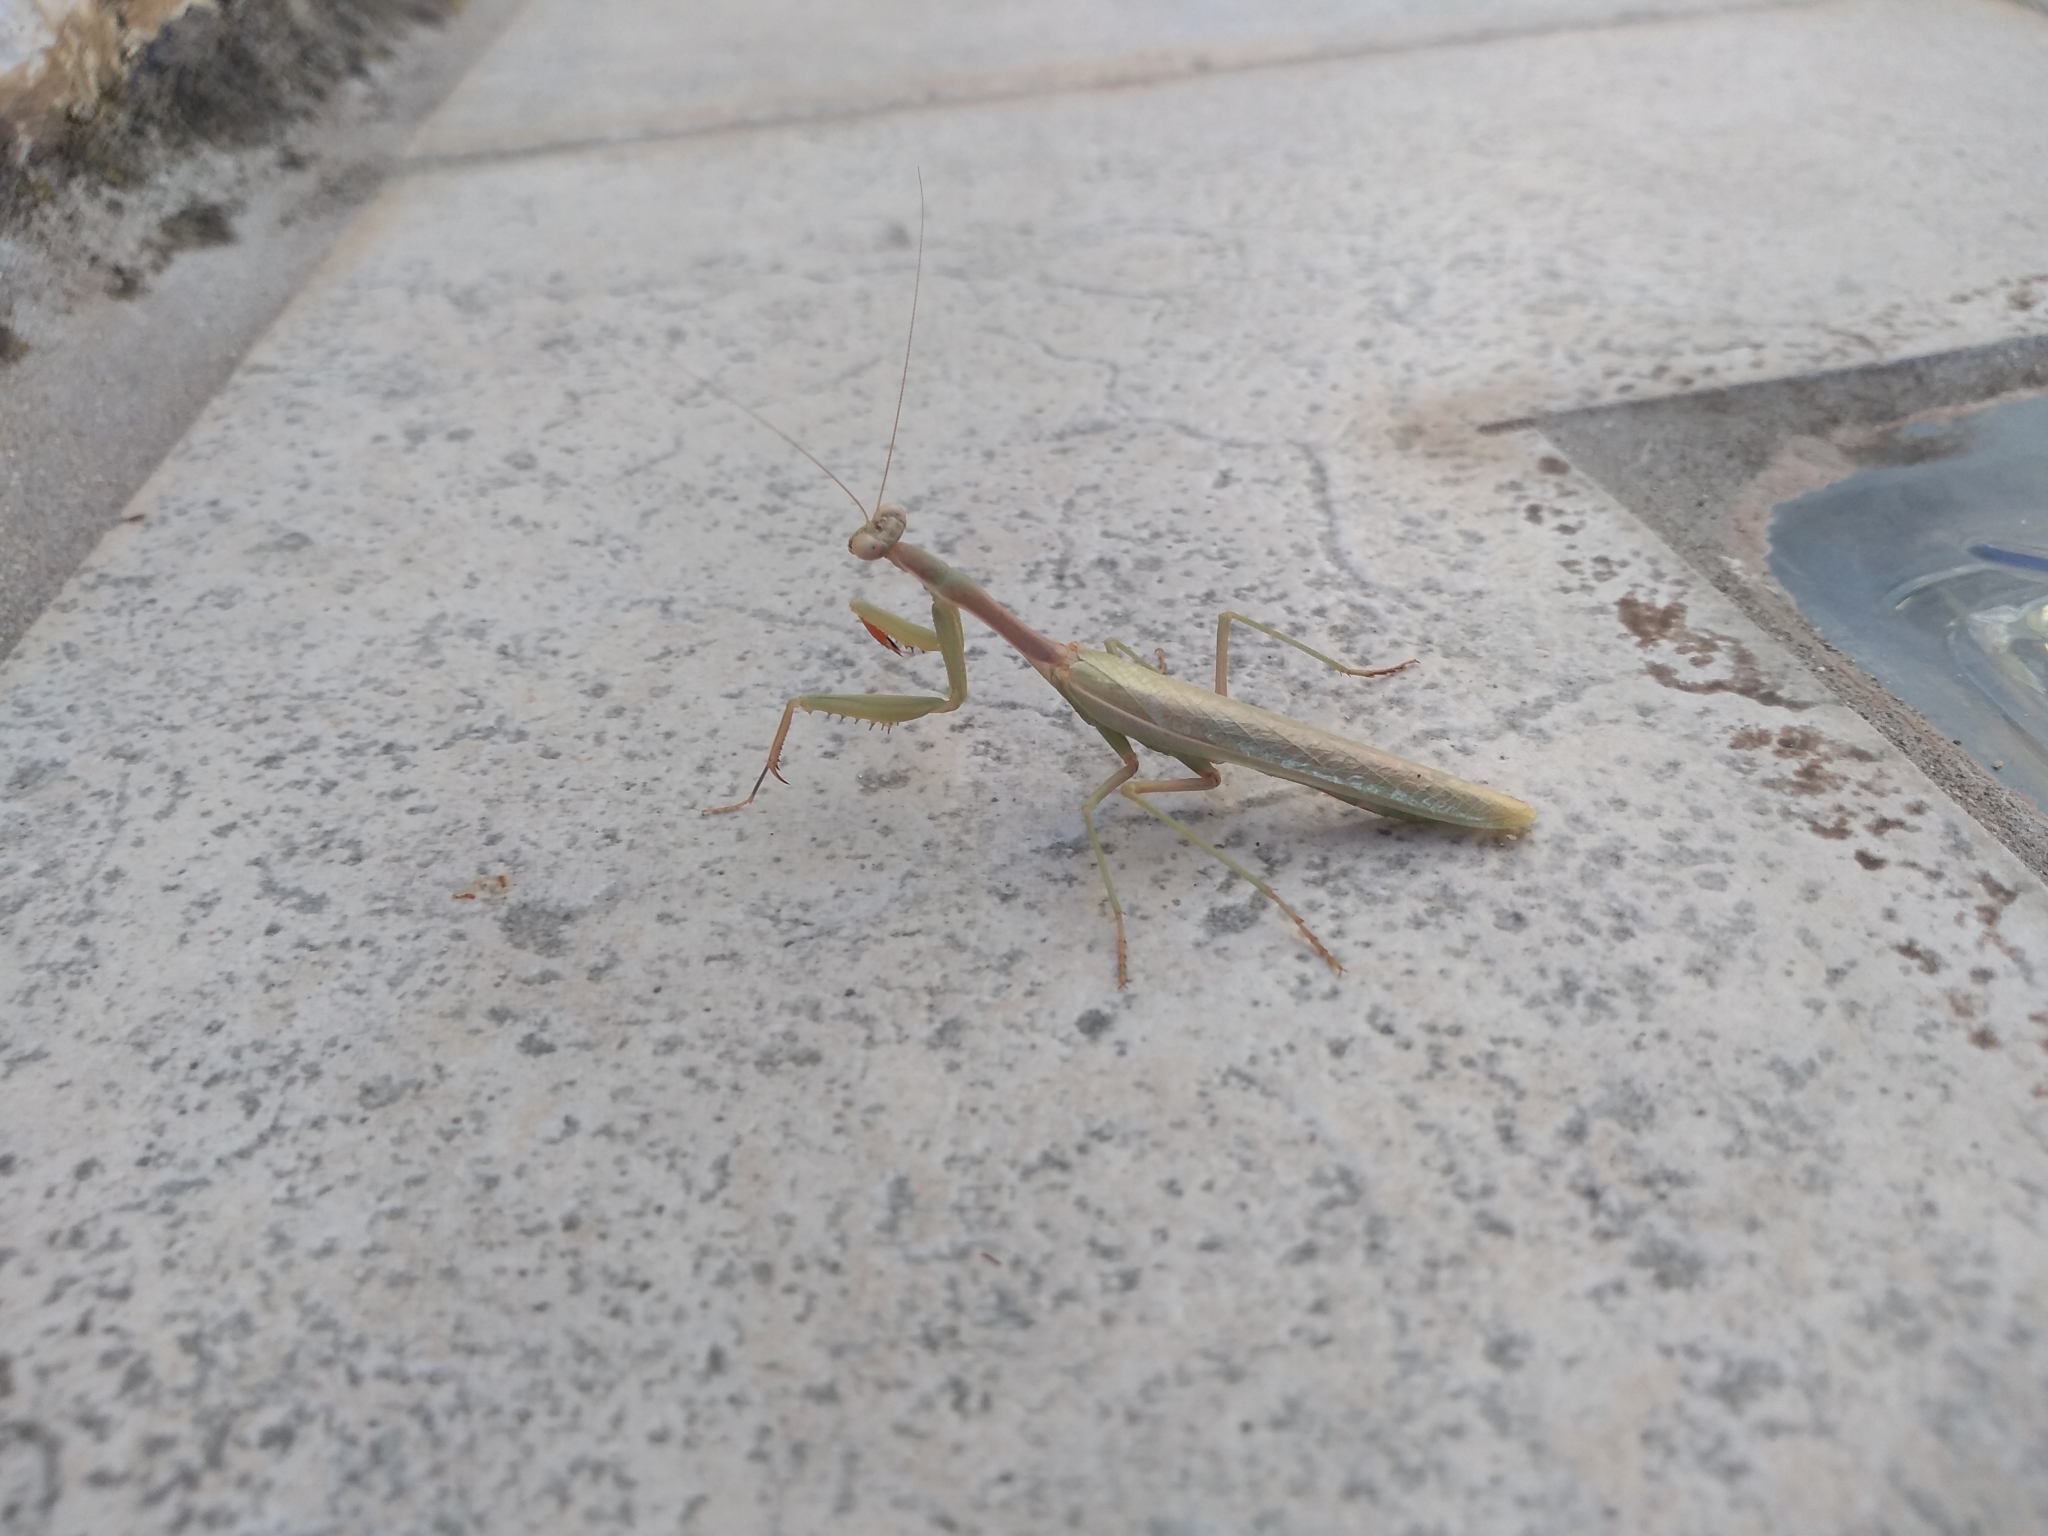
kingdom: Animalia
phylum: Arthropoda
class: Insecta
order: Mantodea
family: Eremiaphilidae
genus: Iris
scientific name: Iris oratoria
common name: Mediterranean mantis
